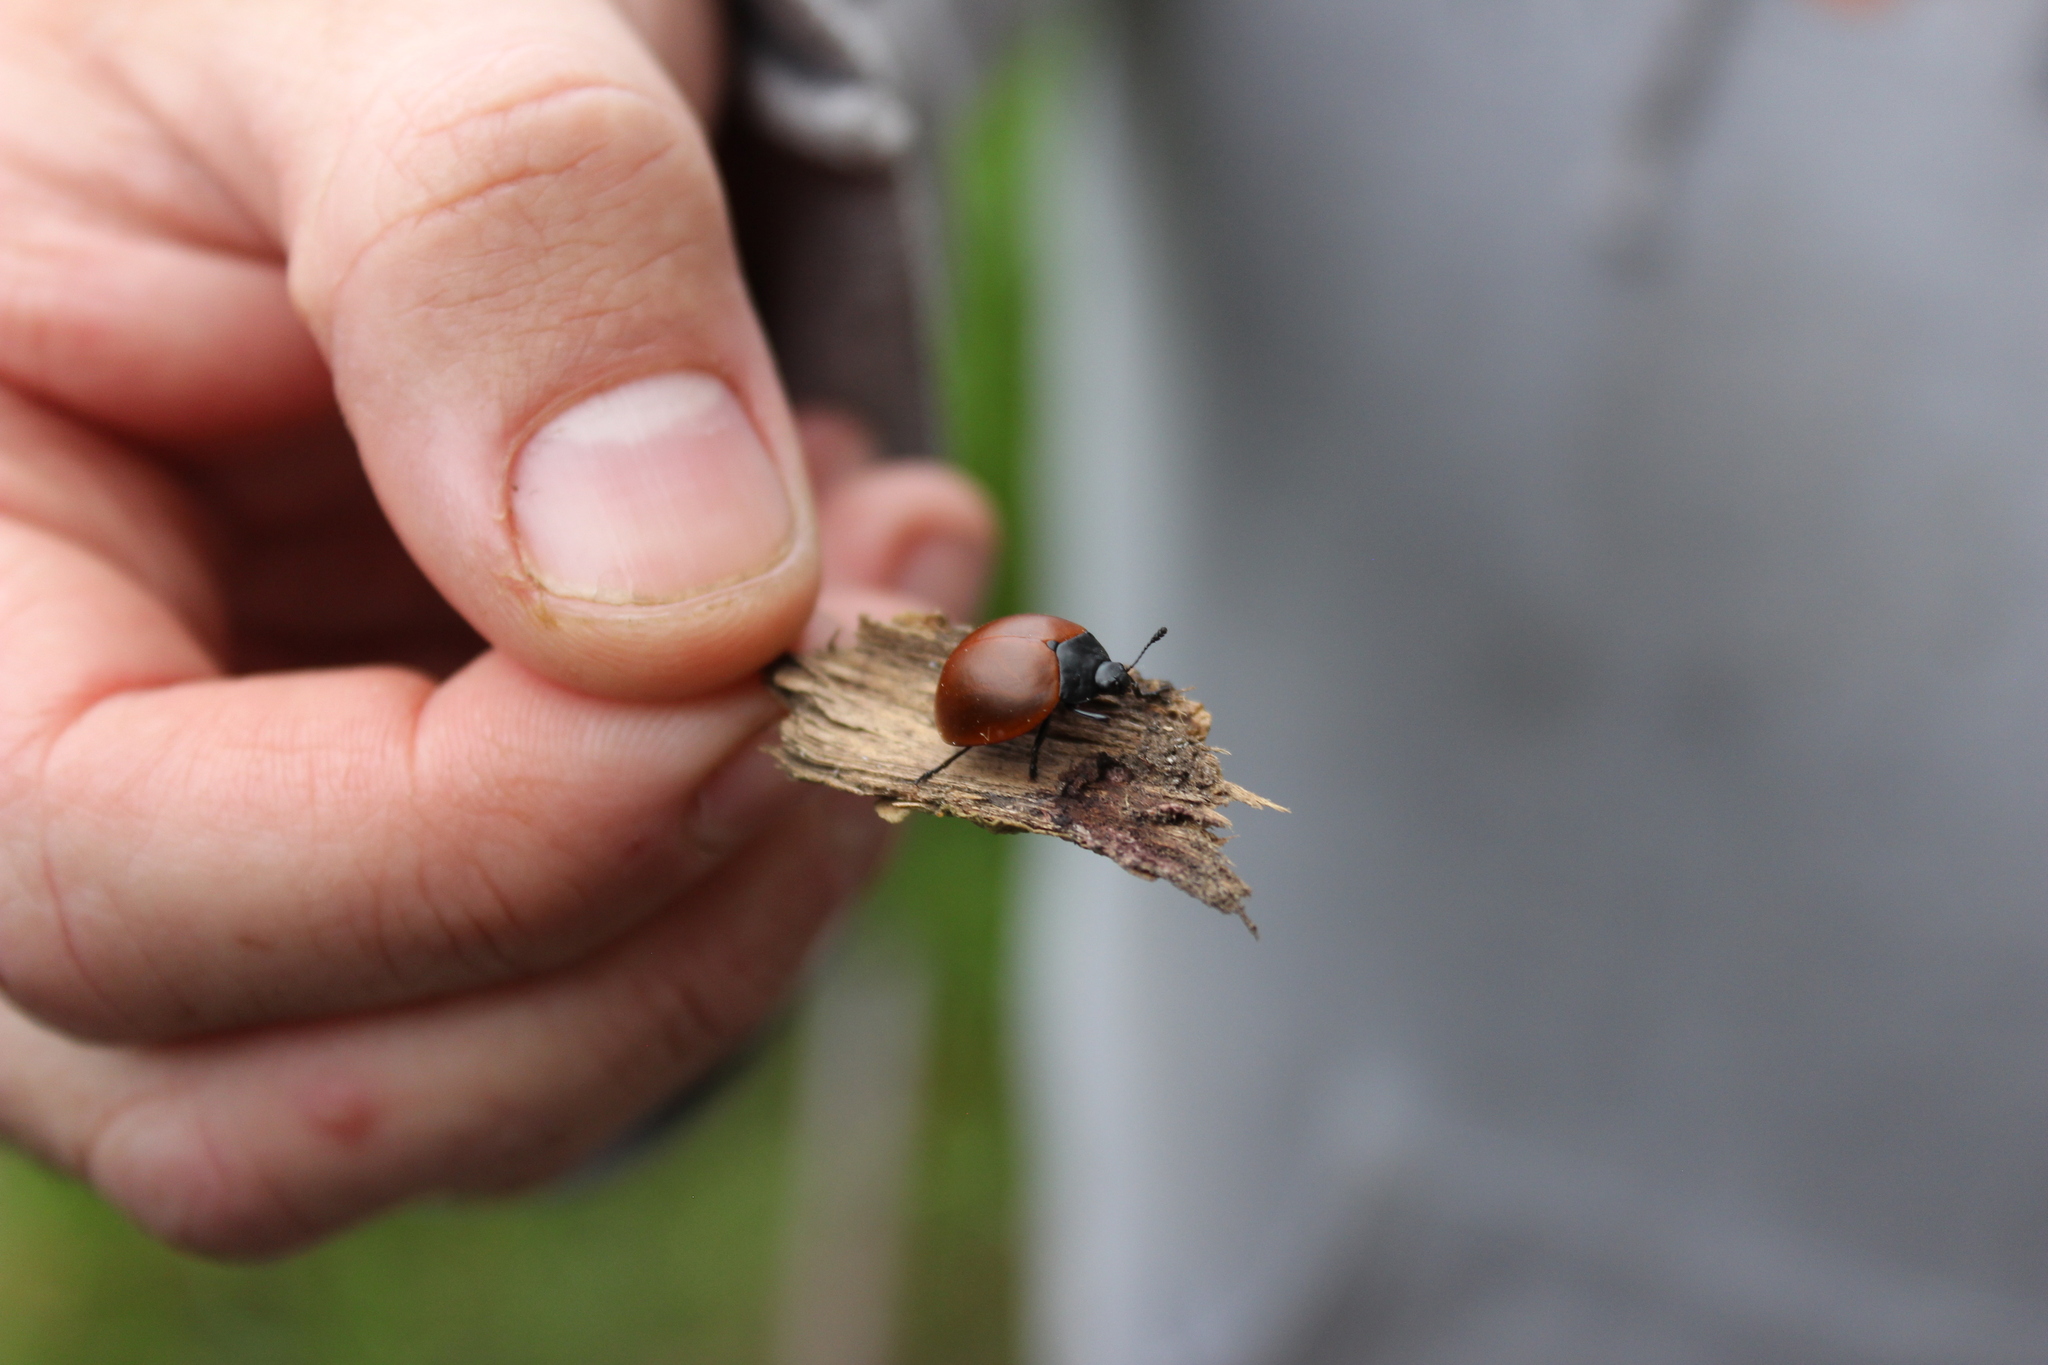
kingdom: Animalia
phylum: Arthropoda
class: Insecta
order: Coleoptera
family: Erotylidae
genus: Aegithus
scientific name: Aegithus clavicornis
